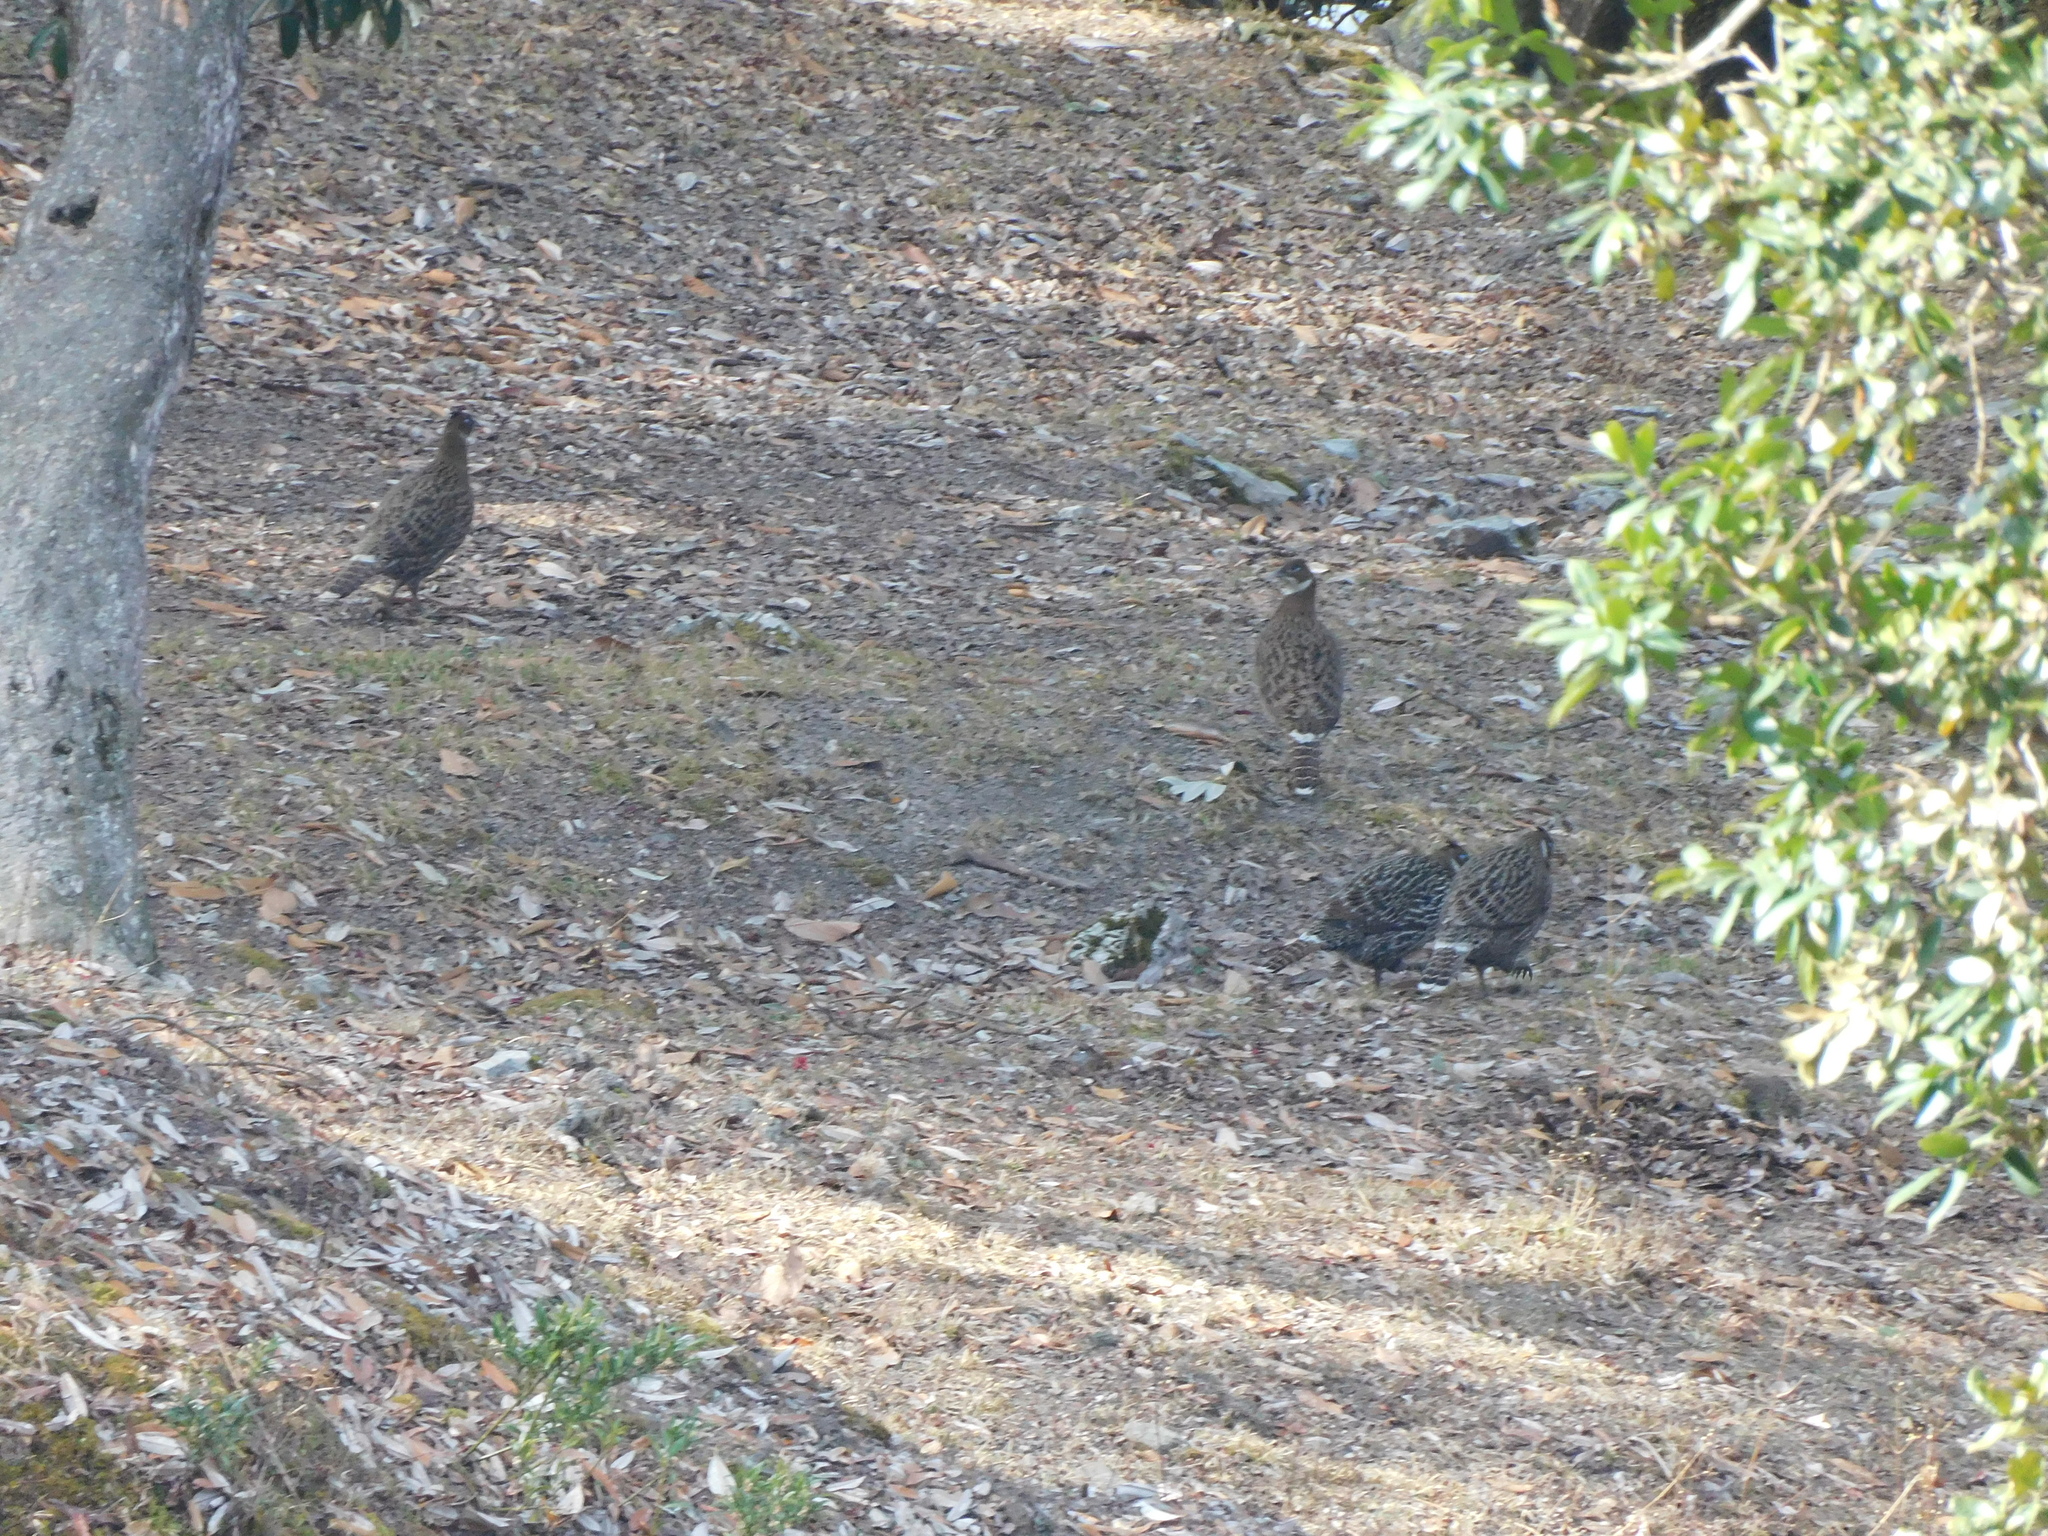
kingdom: Animalia
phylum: Chordata
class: Aves
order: Galliformes
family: Phasianidae
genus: Lophophorus
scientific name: Lophophorus impejanus
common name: Himalayan monal
